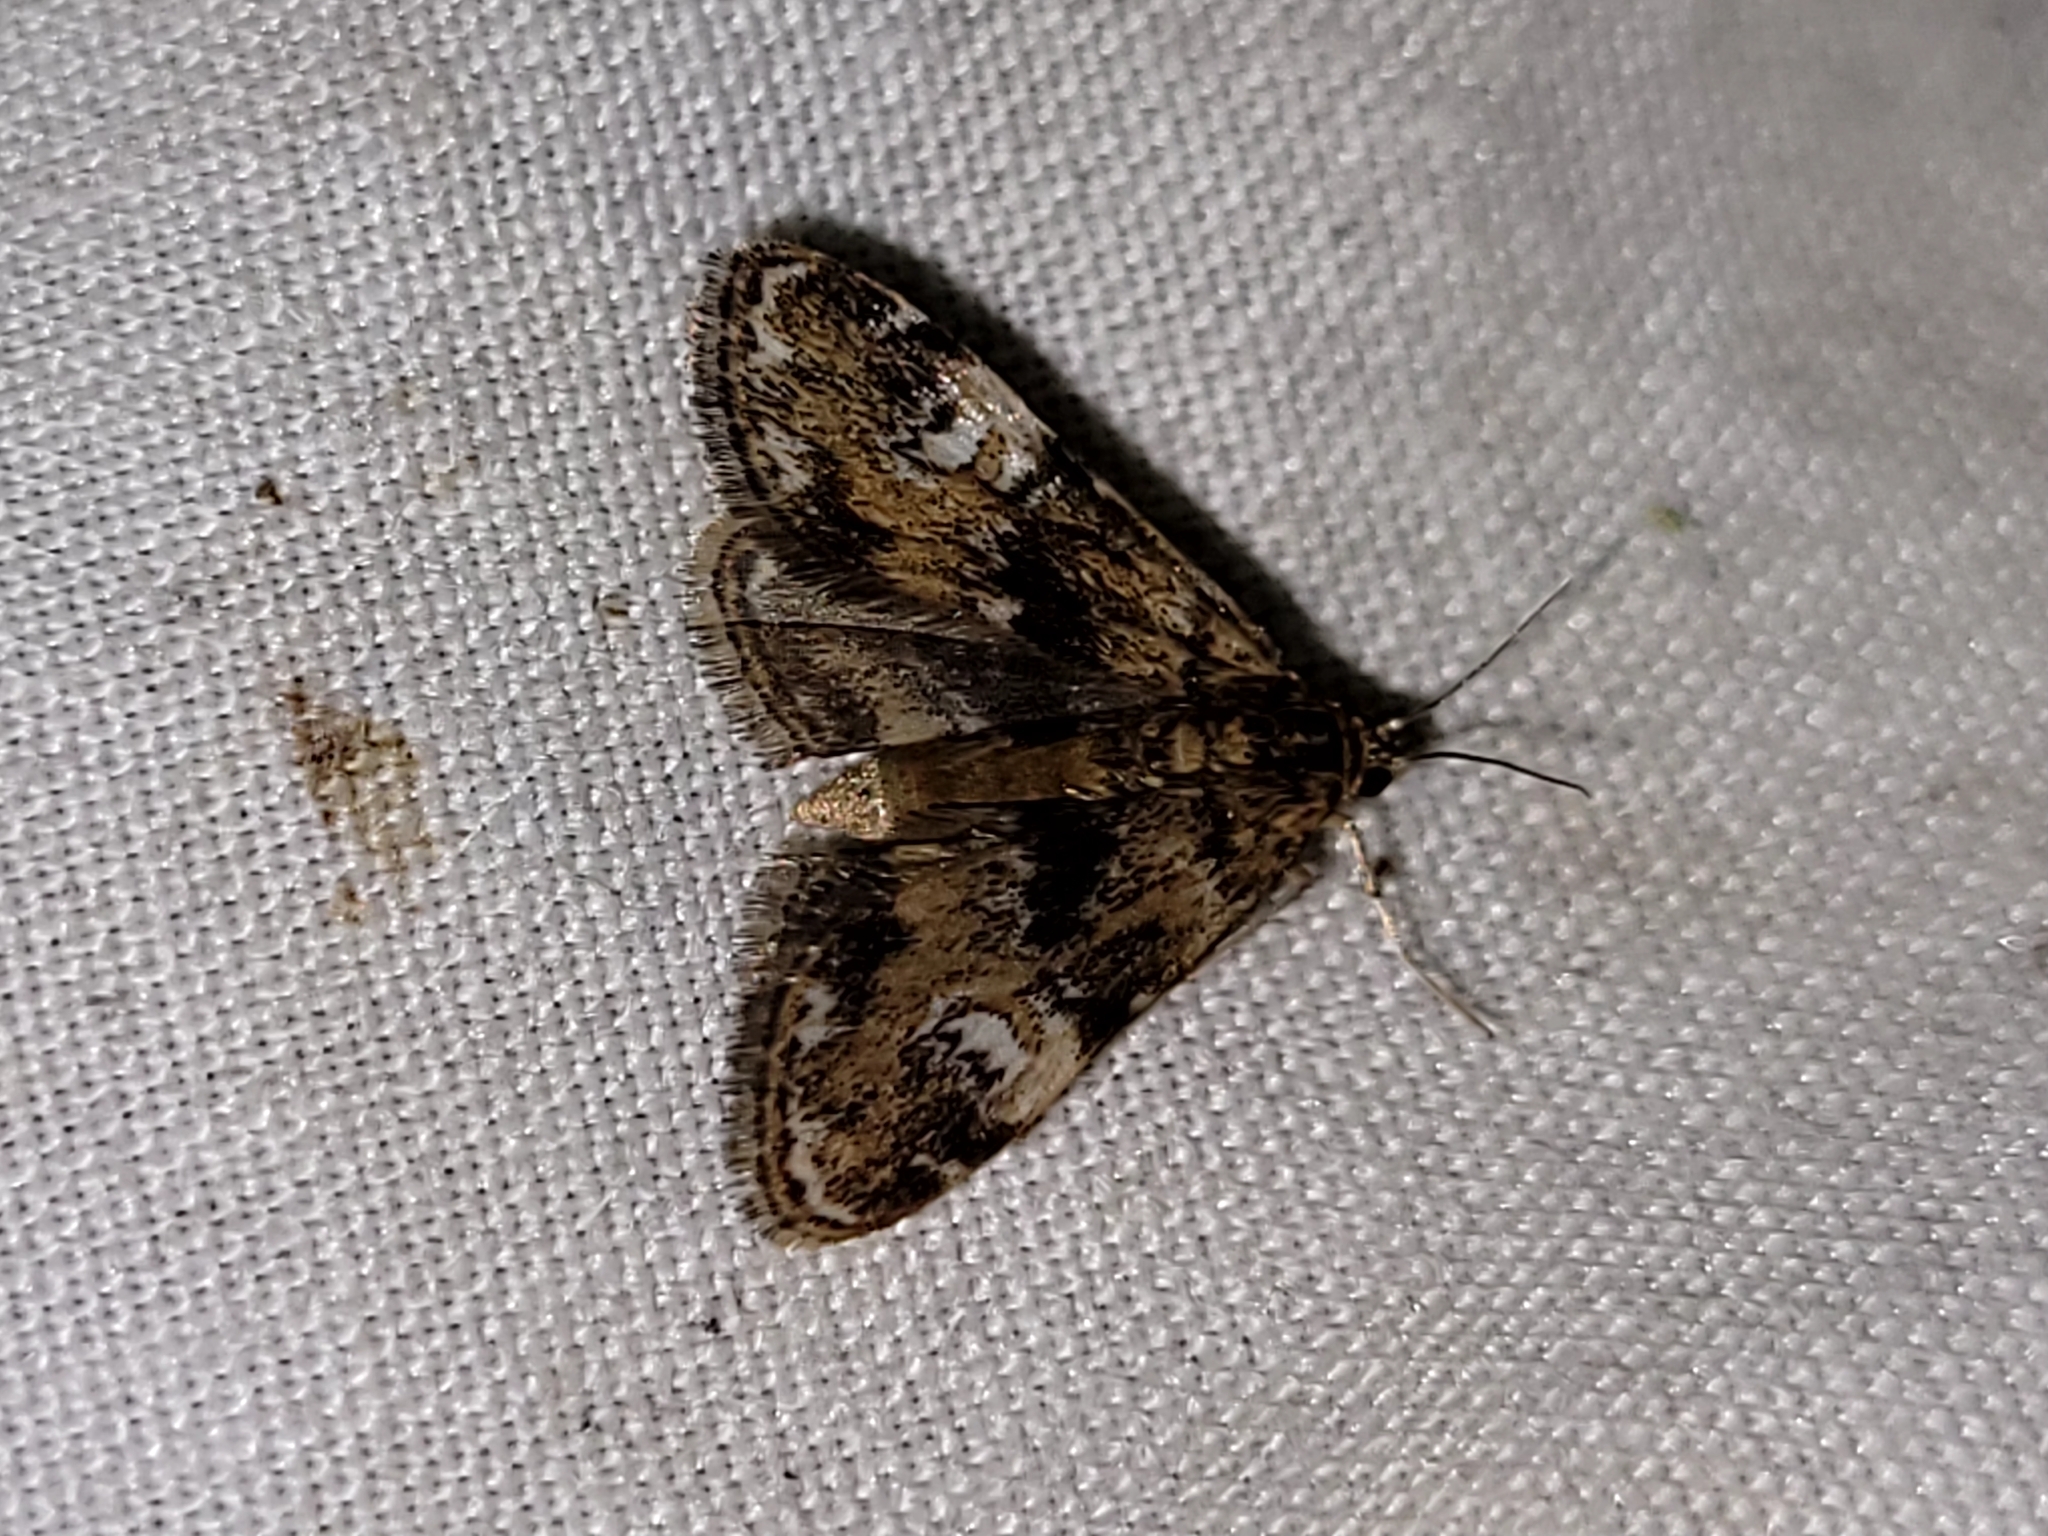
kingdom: Animalia
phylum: Arthropoda
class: Insecta
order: Lepidoptera
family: Crambidae
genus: Elophila
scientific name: Elophila obliteralis
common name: Waterlily leafcutter moth
